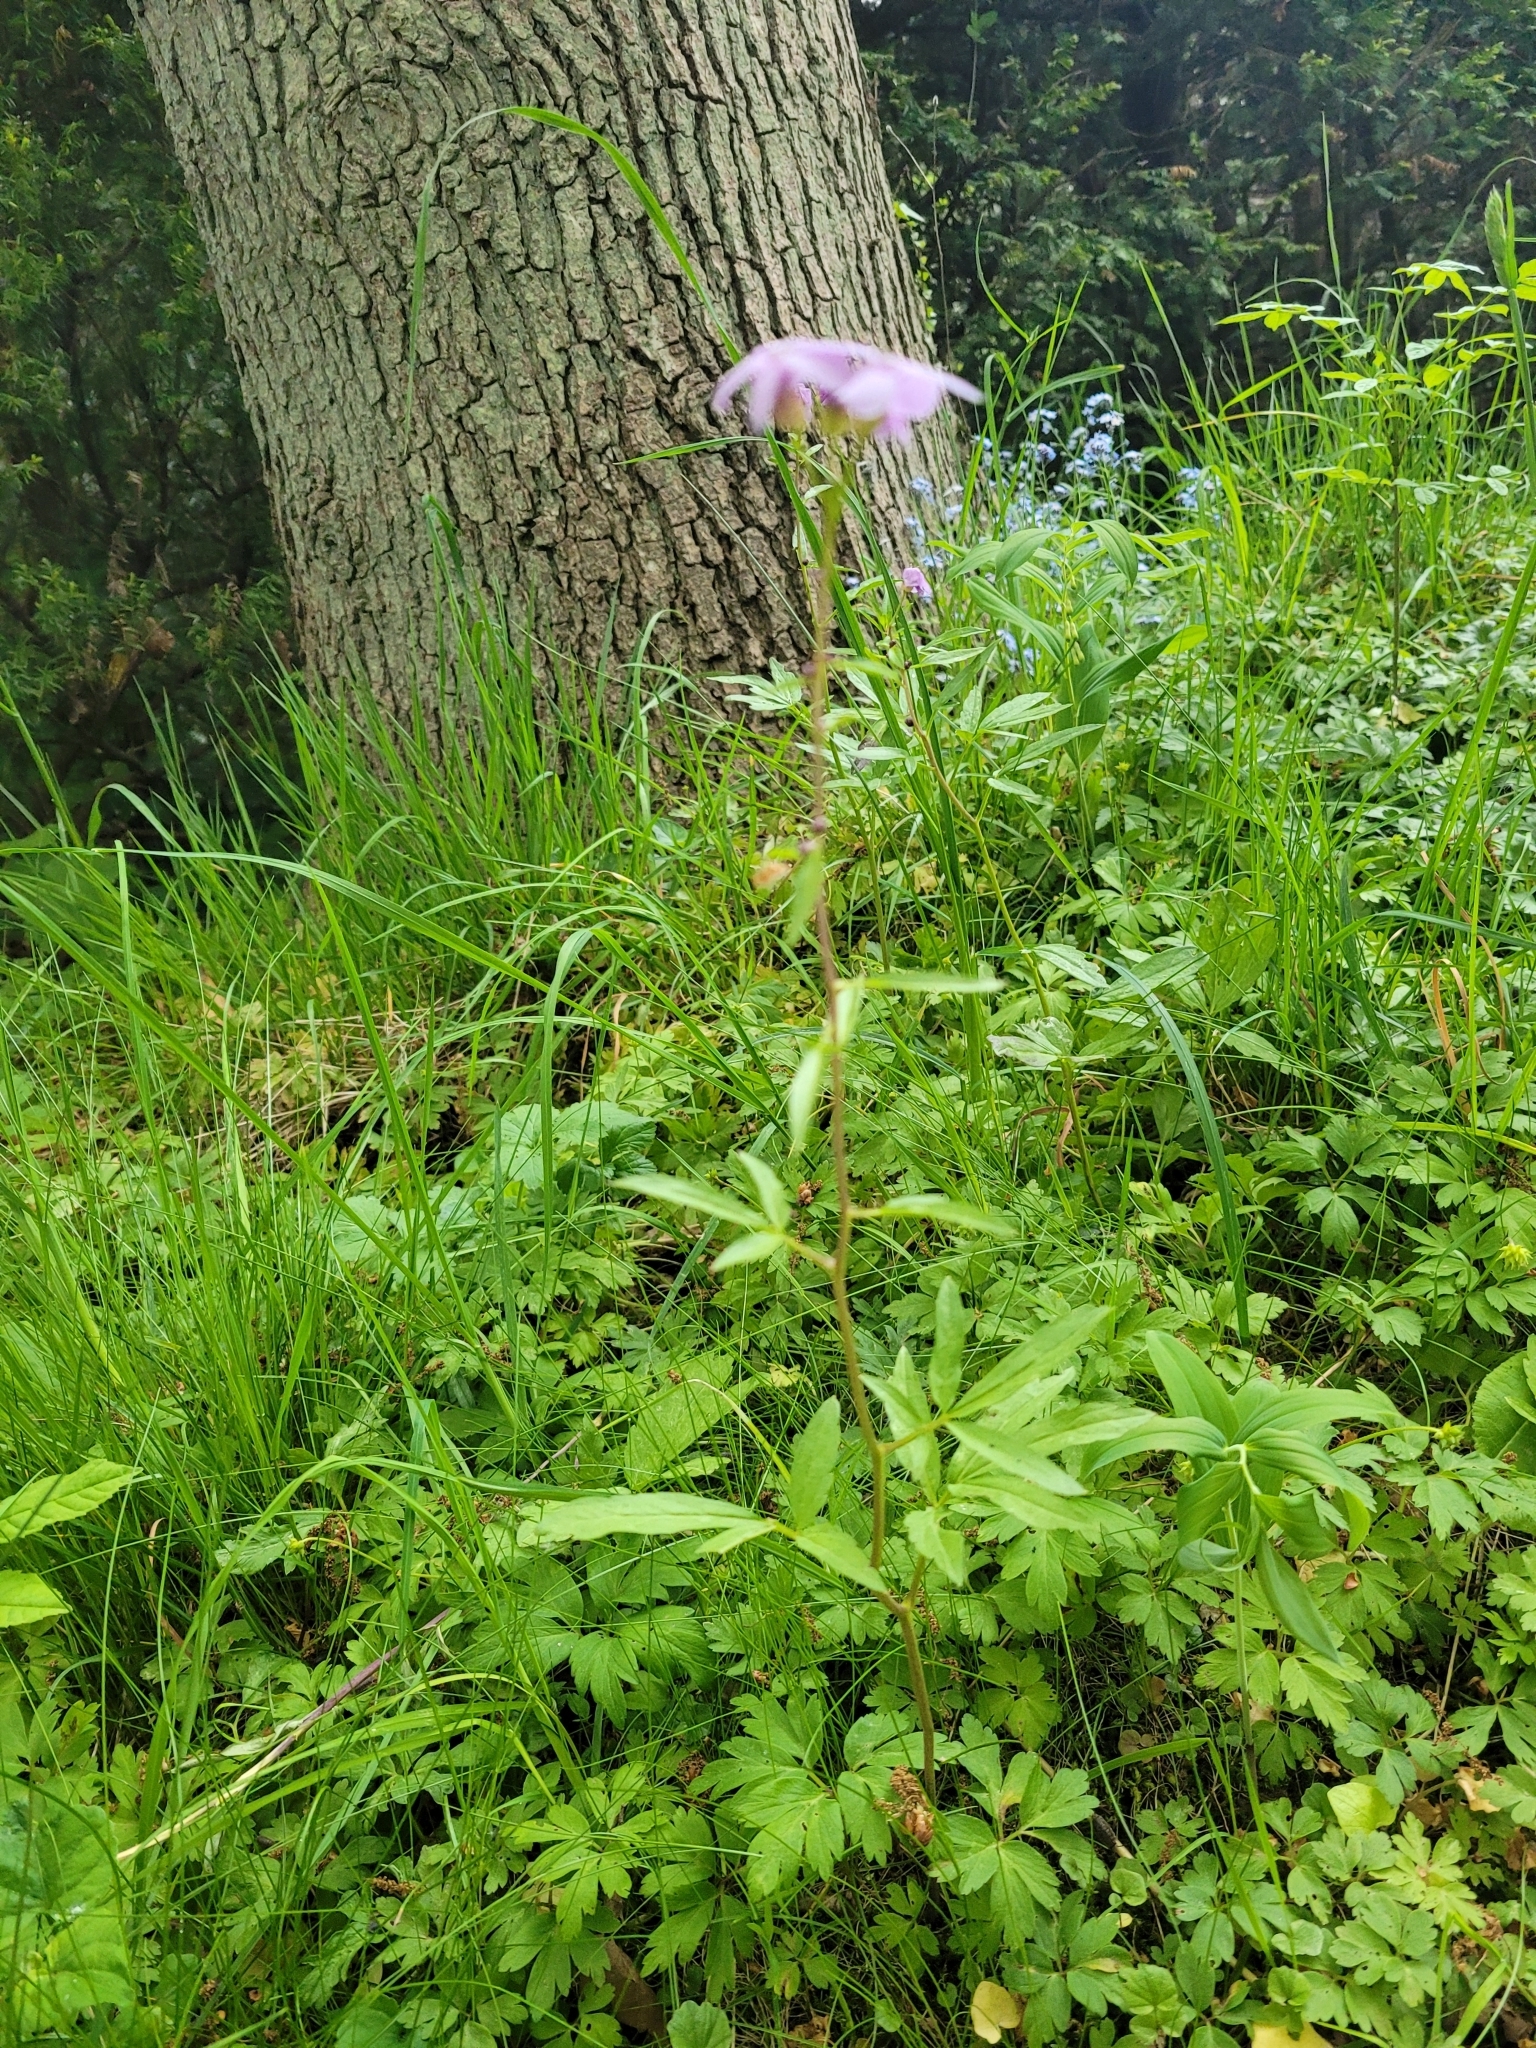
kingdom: Plantae
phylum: Tracheophyta
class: Magnoliopsida
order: Brassicales
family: Brassicaceae
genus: Cardamine
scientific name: Cardamine bulbifera
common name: Coralroot bittercress
